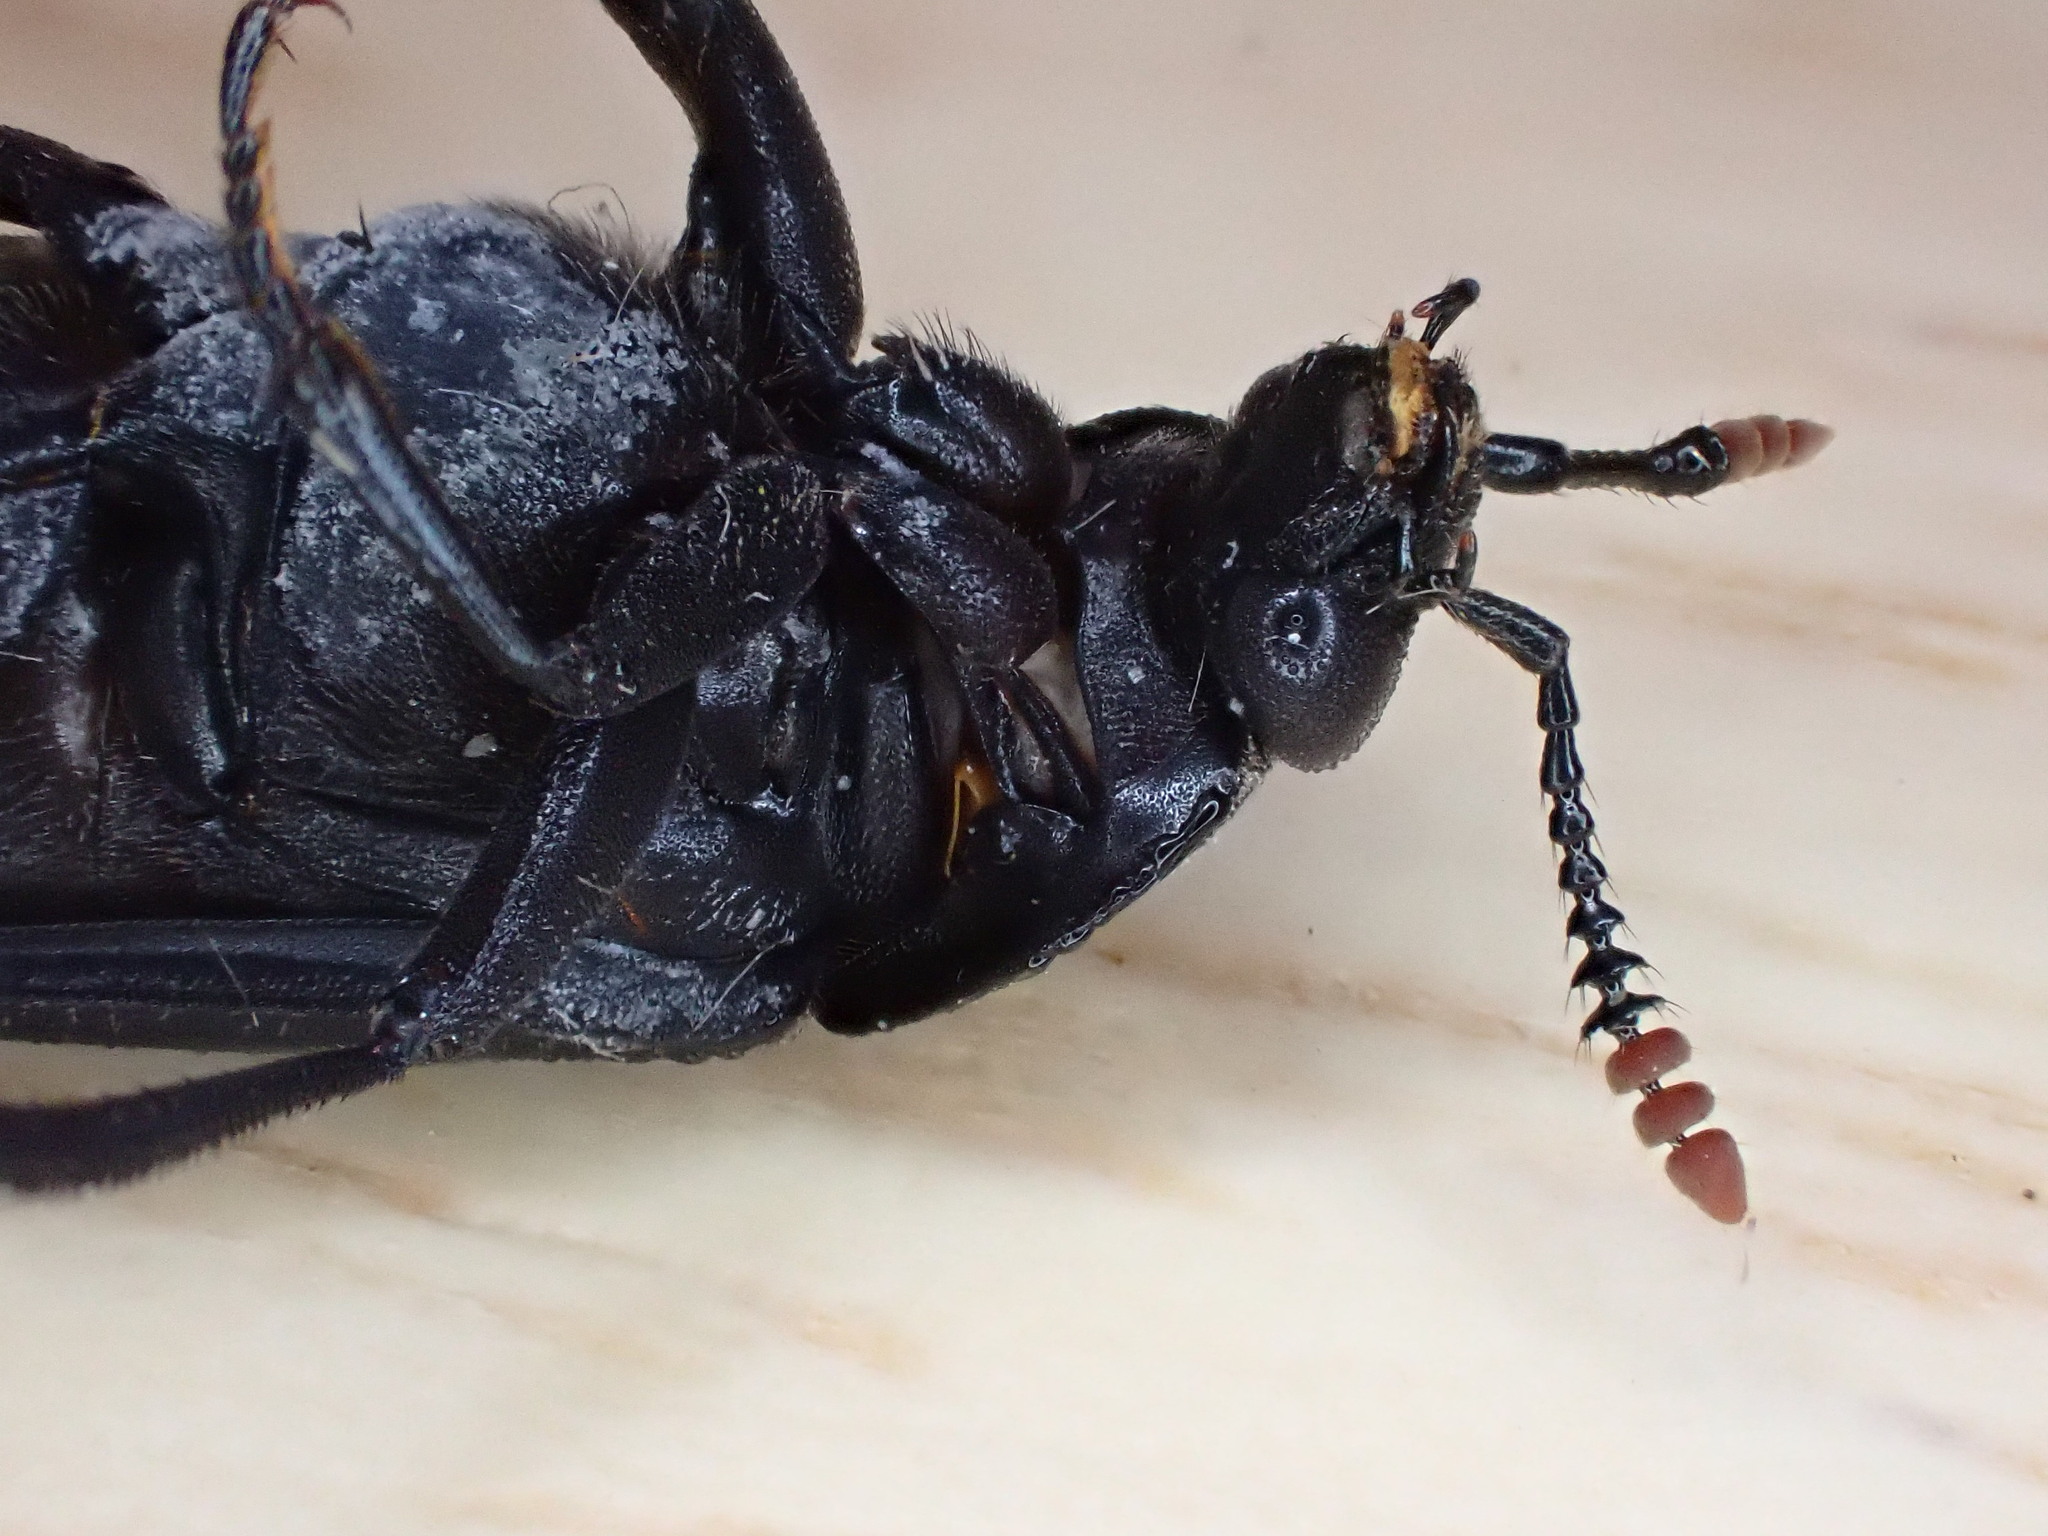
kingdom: Animalia
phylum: Arthropoda
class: Insecta
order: Coleoptera
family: Staphylinidae
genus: Necrodes
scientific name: Necrodes littoralis
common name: Shore sexton beetle
